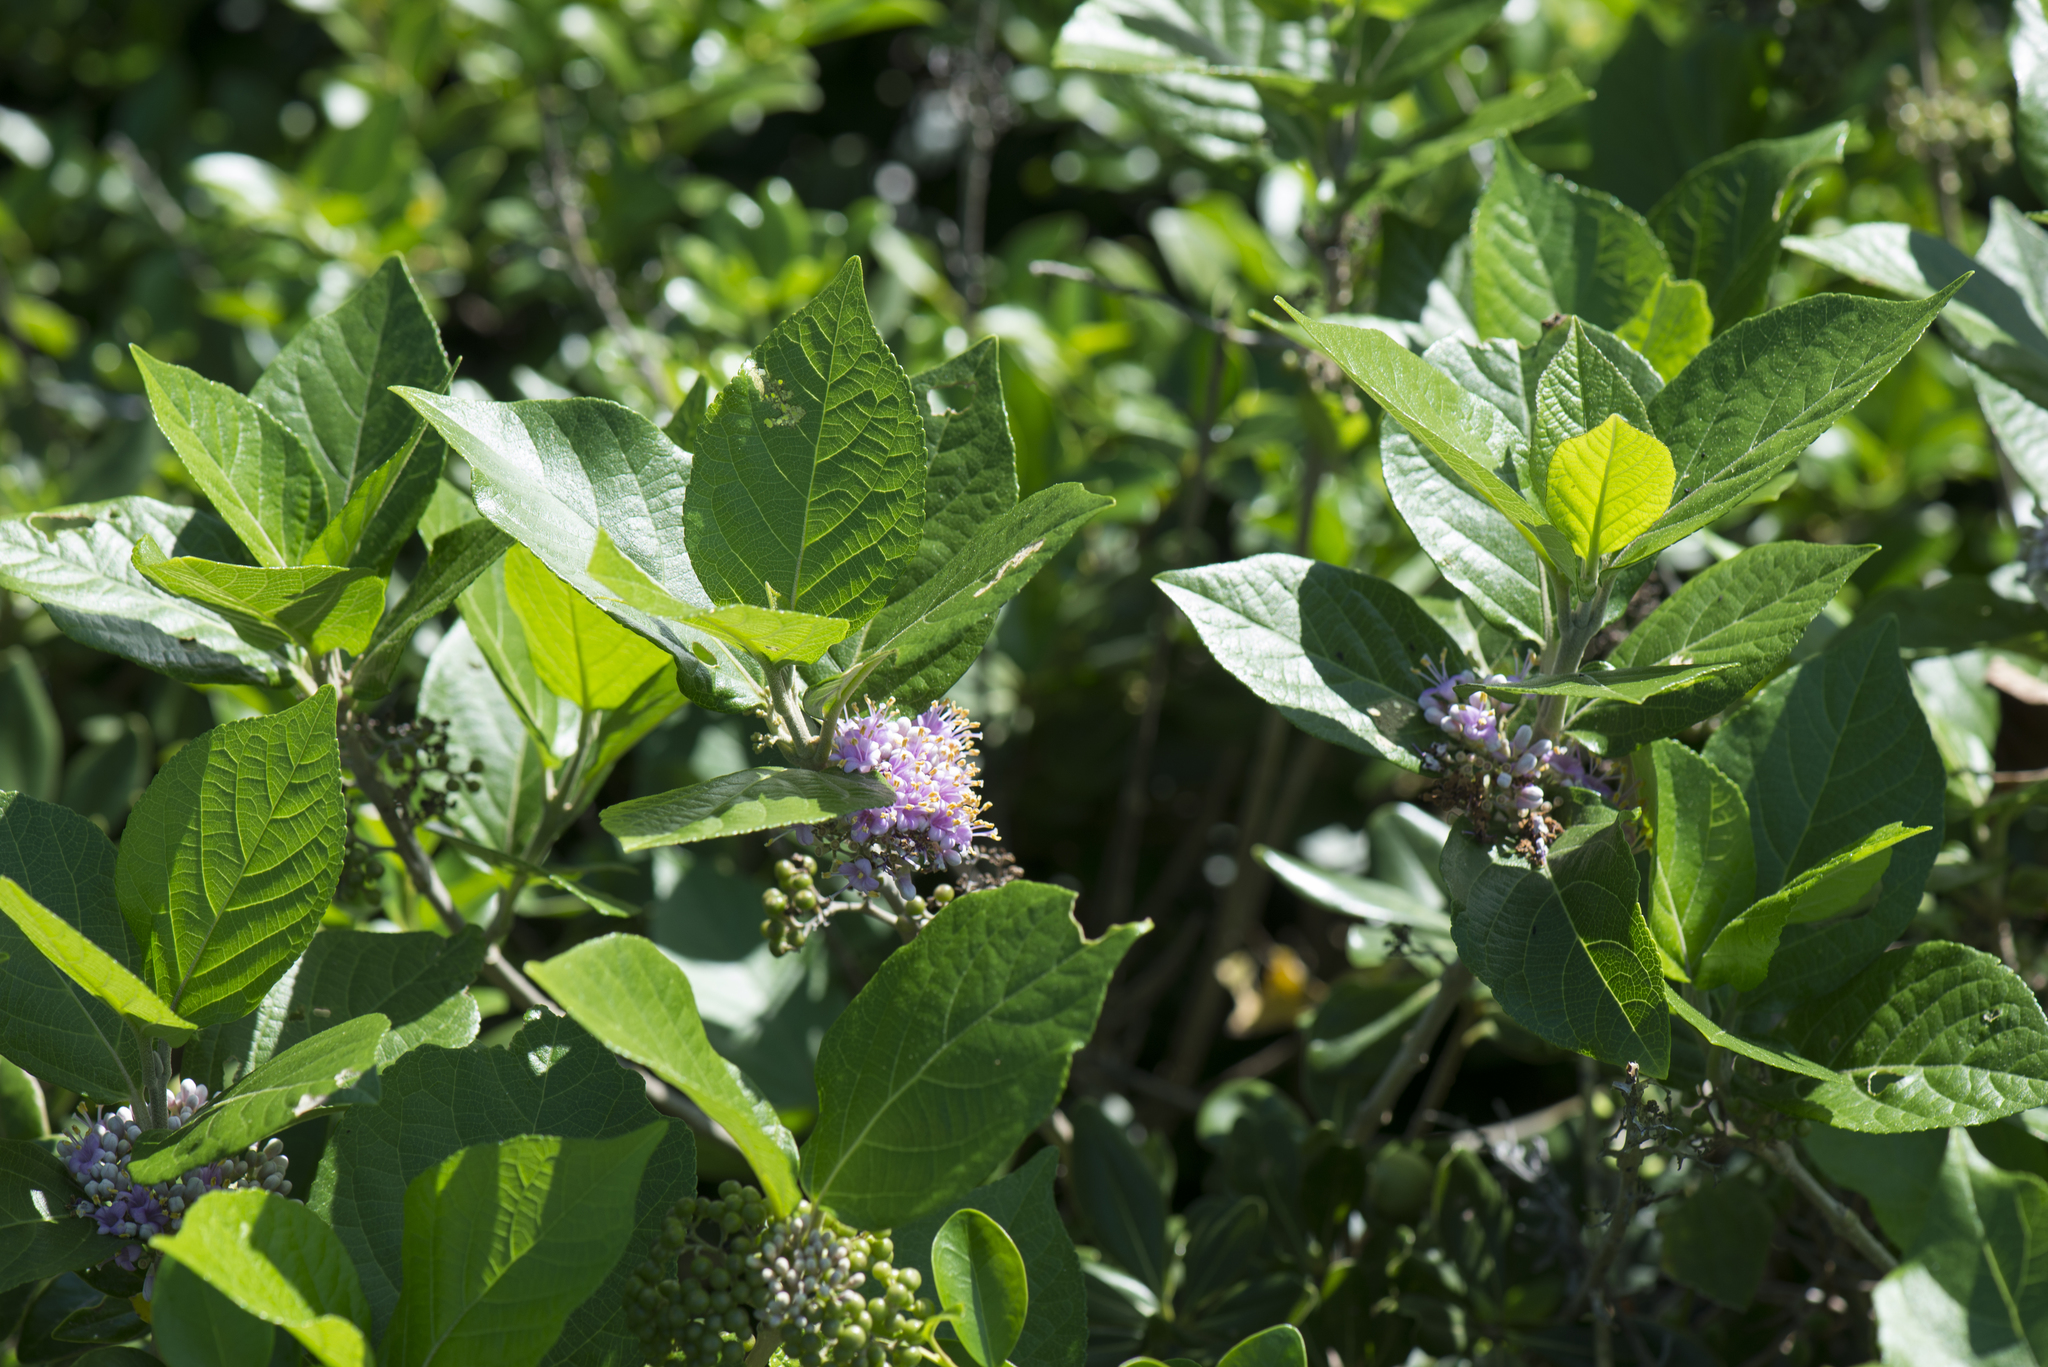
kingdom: Plantae
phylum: Tracheophyta
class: Magnoliopsida
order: Lamiales
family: Lamiaceae
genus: Callicarpa
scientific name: Callicarpa japonica
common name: Japanese beauty-berry
